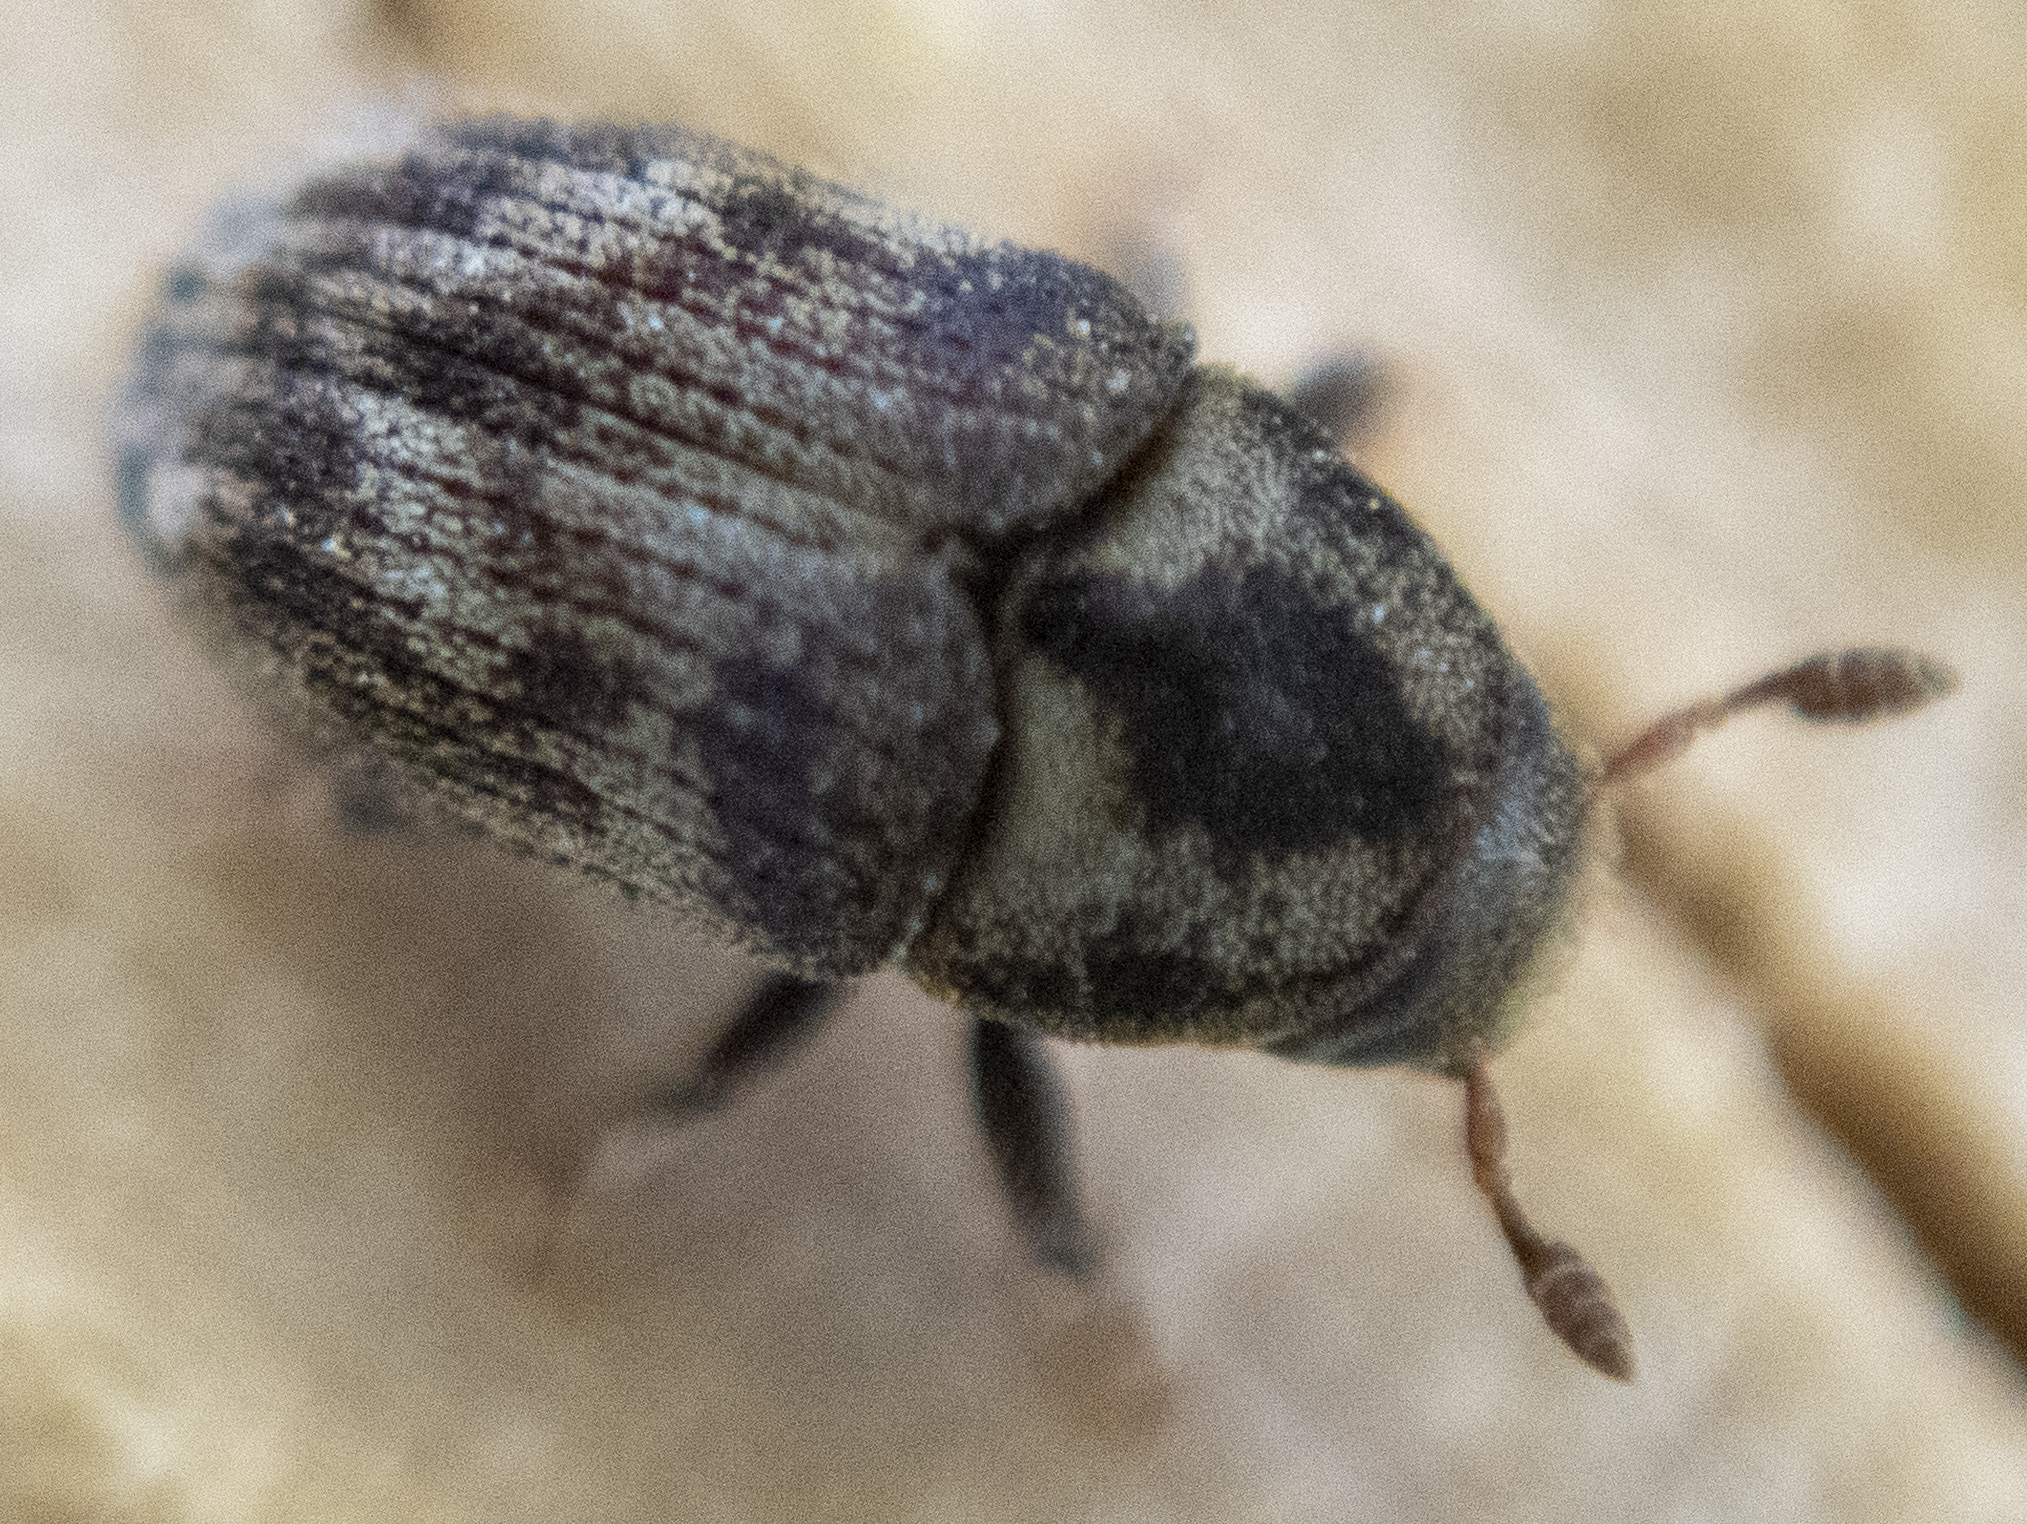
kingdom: Animalia
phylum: Arthropoda
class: Insecta
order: Coleoptera
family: Curculionidae
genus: Hylesinus
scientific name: Hylesinus aculeatus
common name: Easter-ash bark beetle
